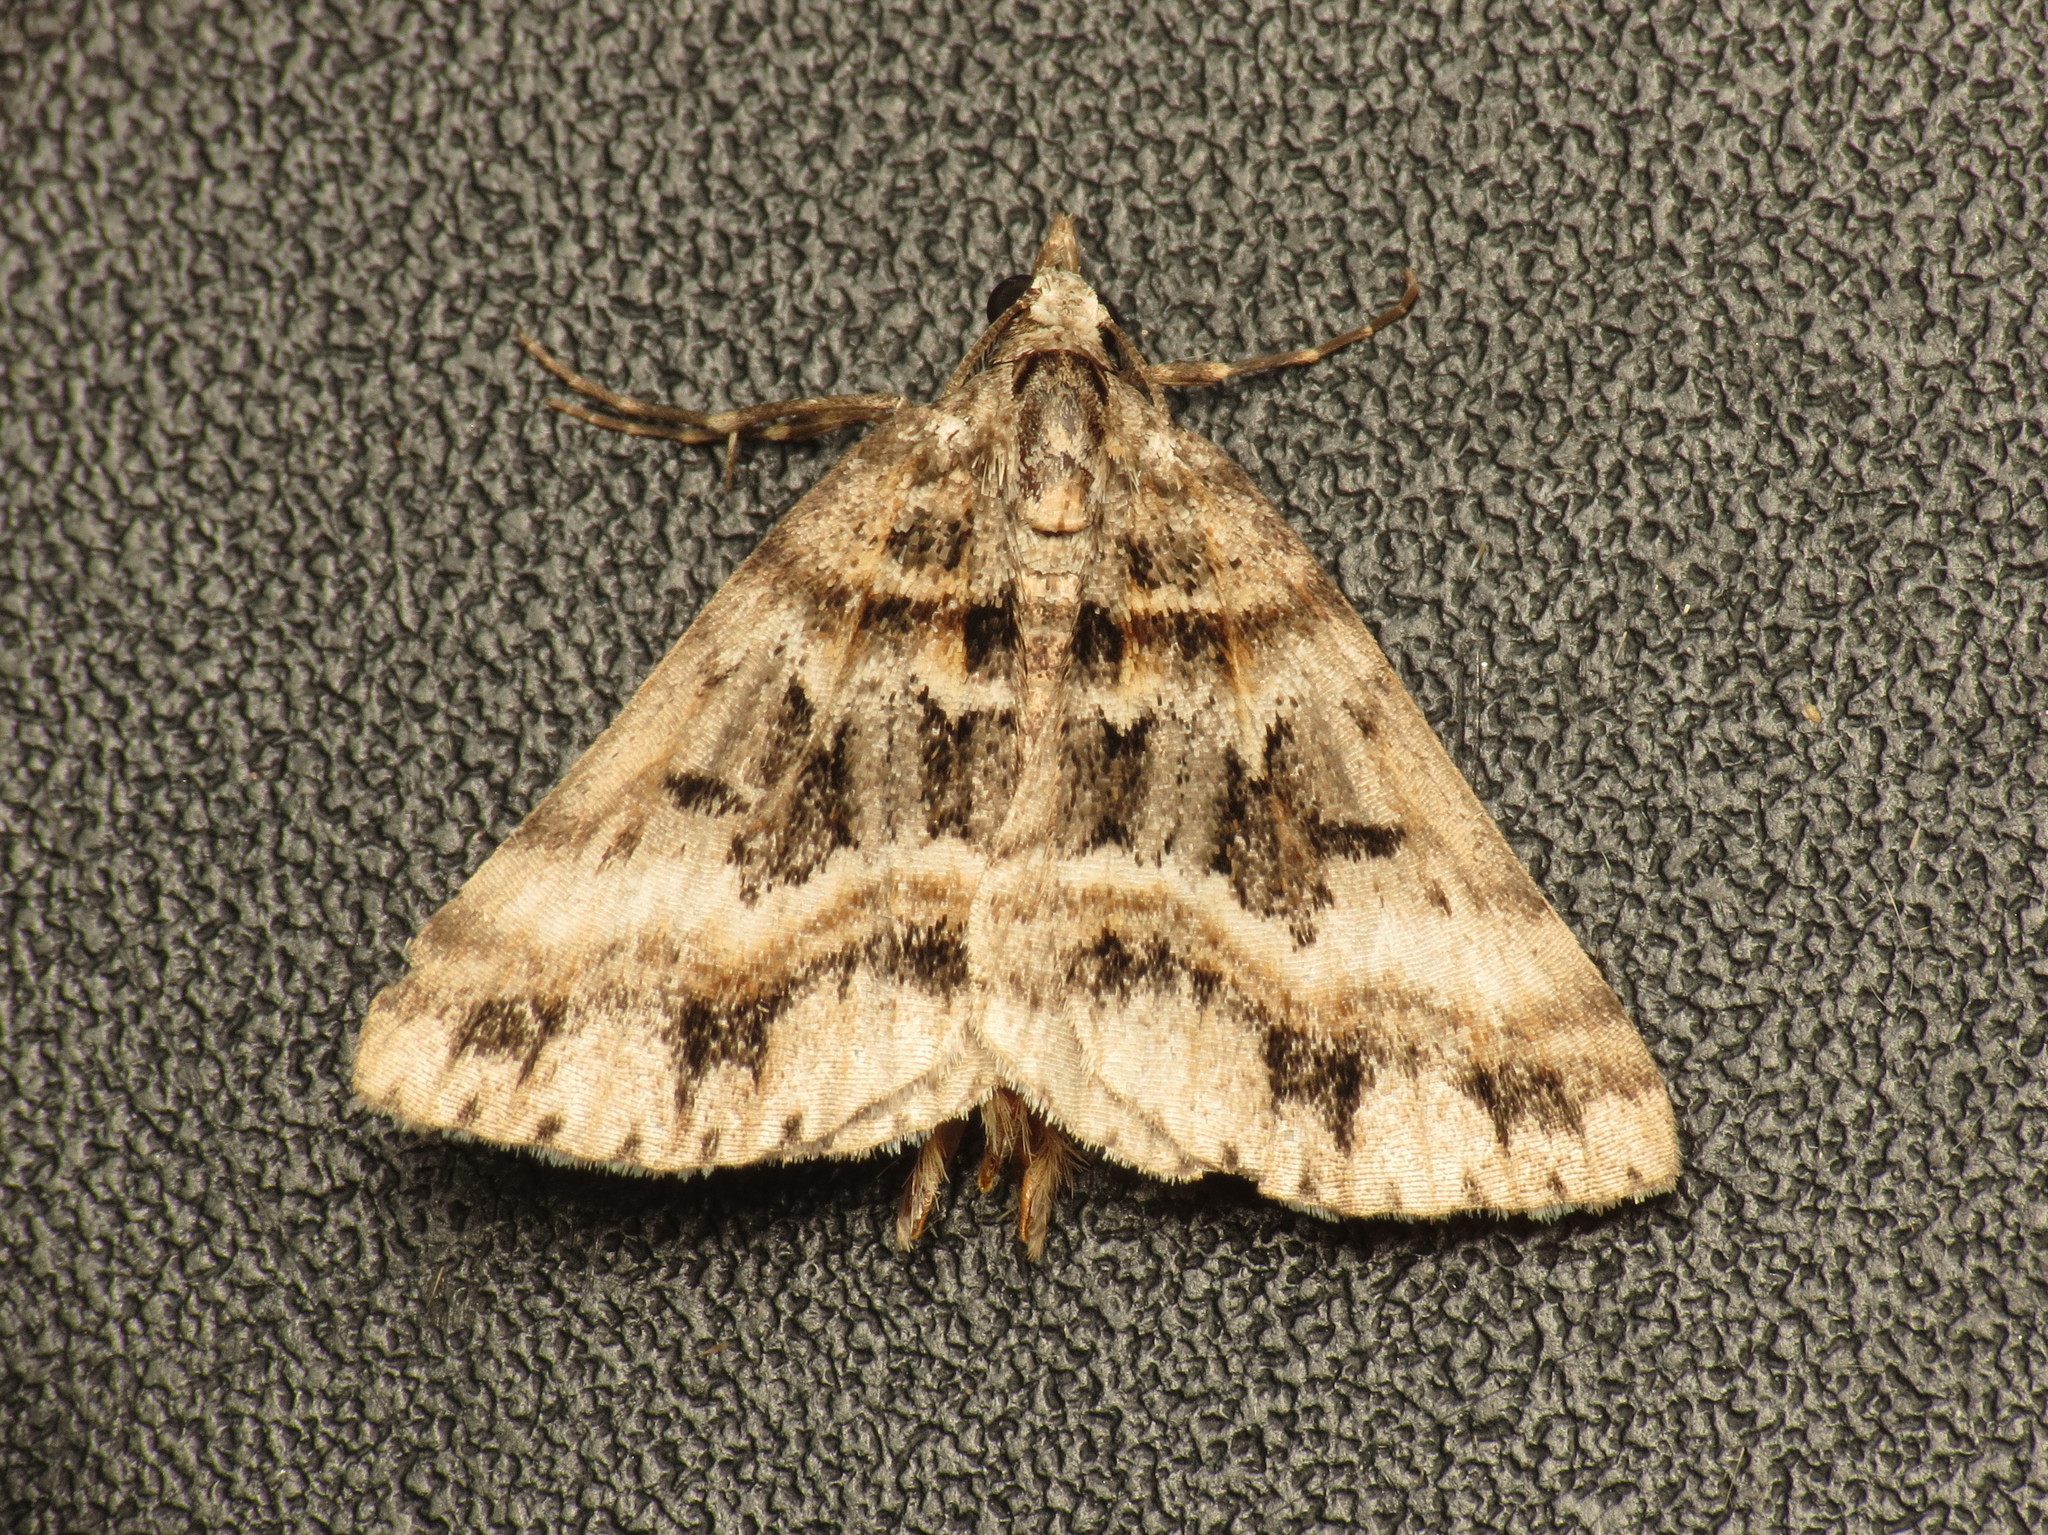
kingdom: Animalia
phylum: Arthropoda
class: Insecta
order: Lepidoptera
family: Geometridae
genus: Dichromodes
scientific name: Dichromodes longidens
